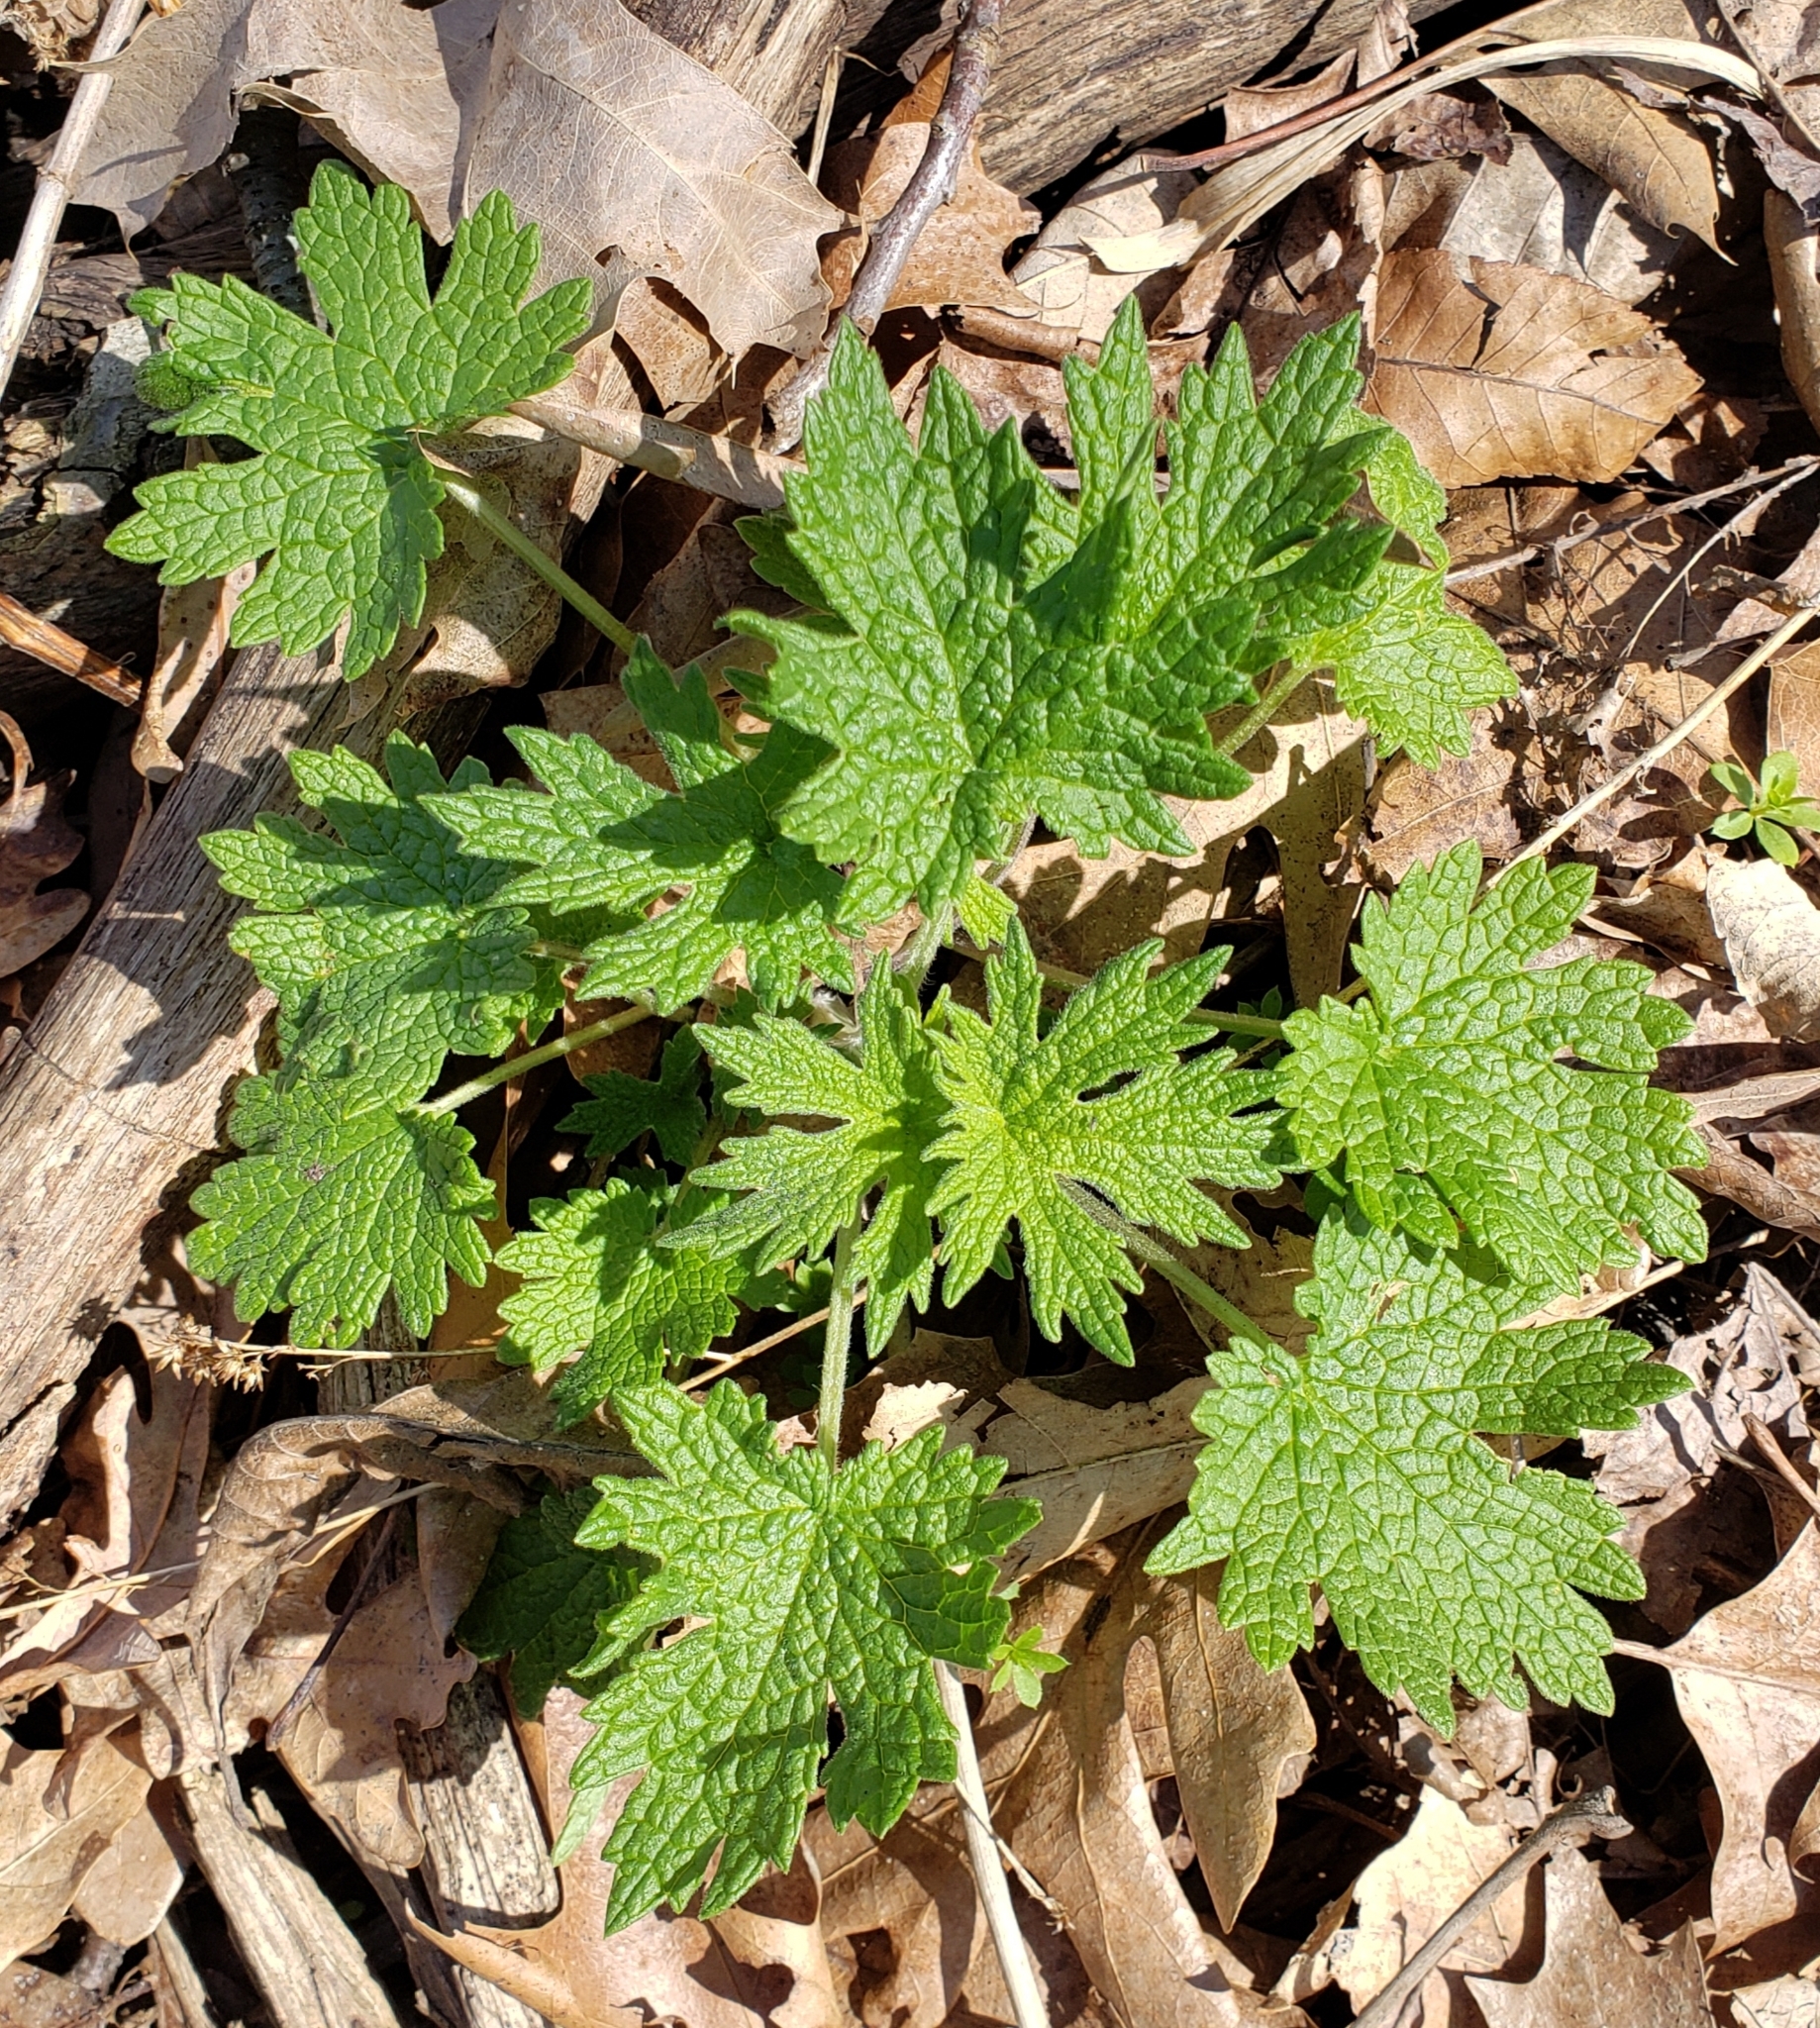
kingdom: Plantae
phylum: Tracheophyta
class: Magnoliopsida
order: Lamiales
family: Lamiaceae
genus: Leonurus
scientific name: Leonurus cardiaca
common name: Motherwort
